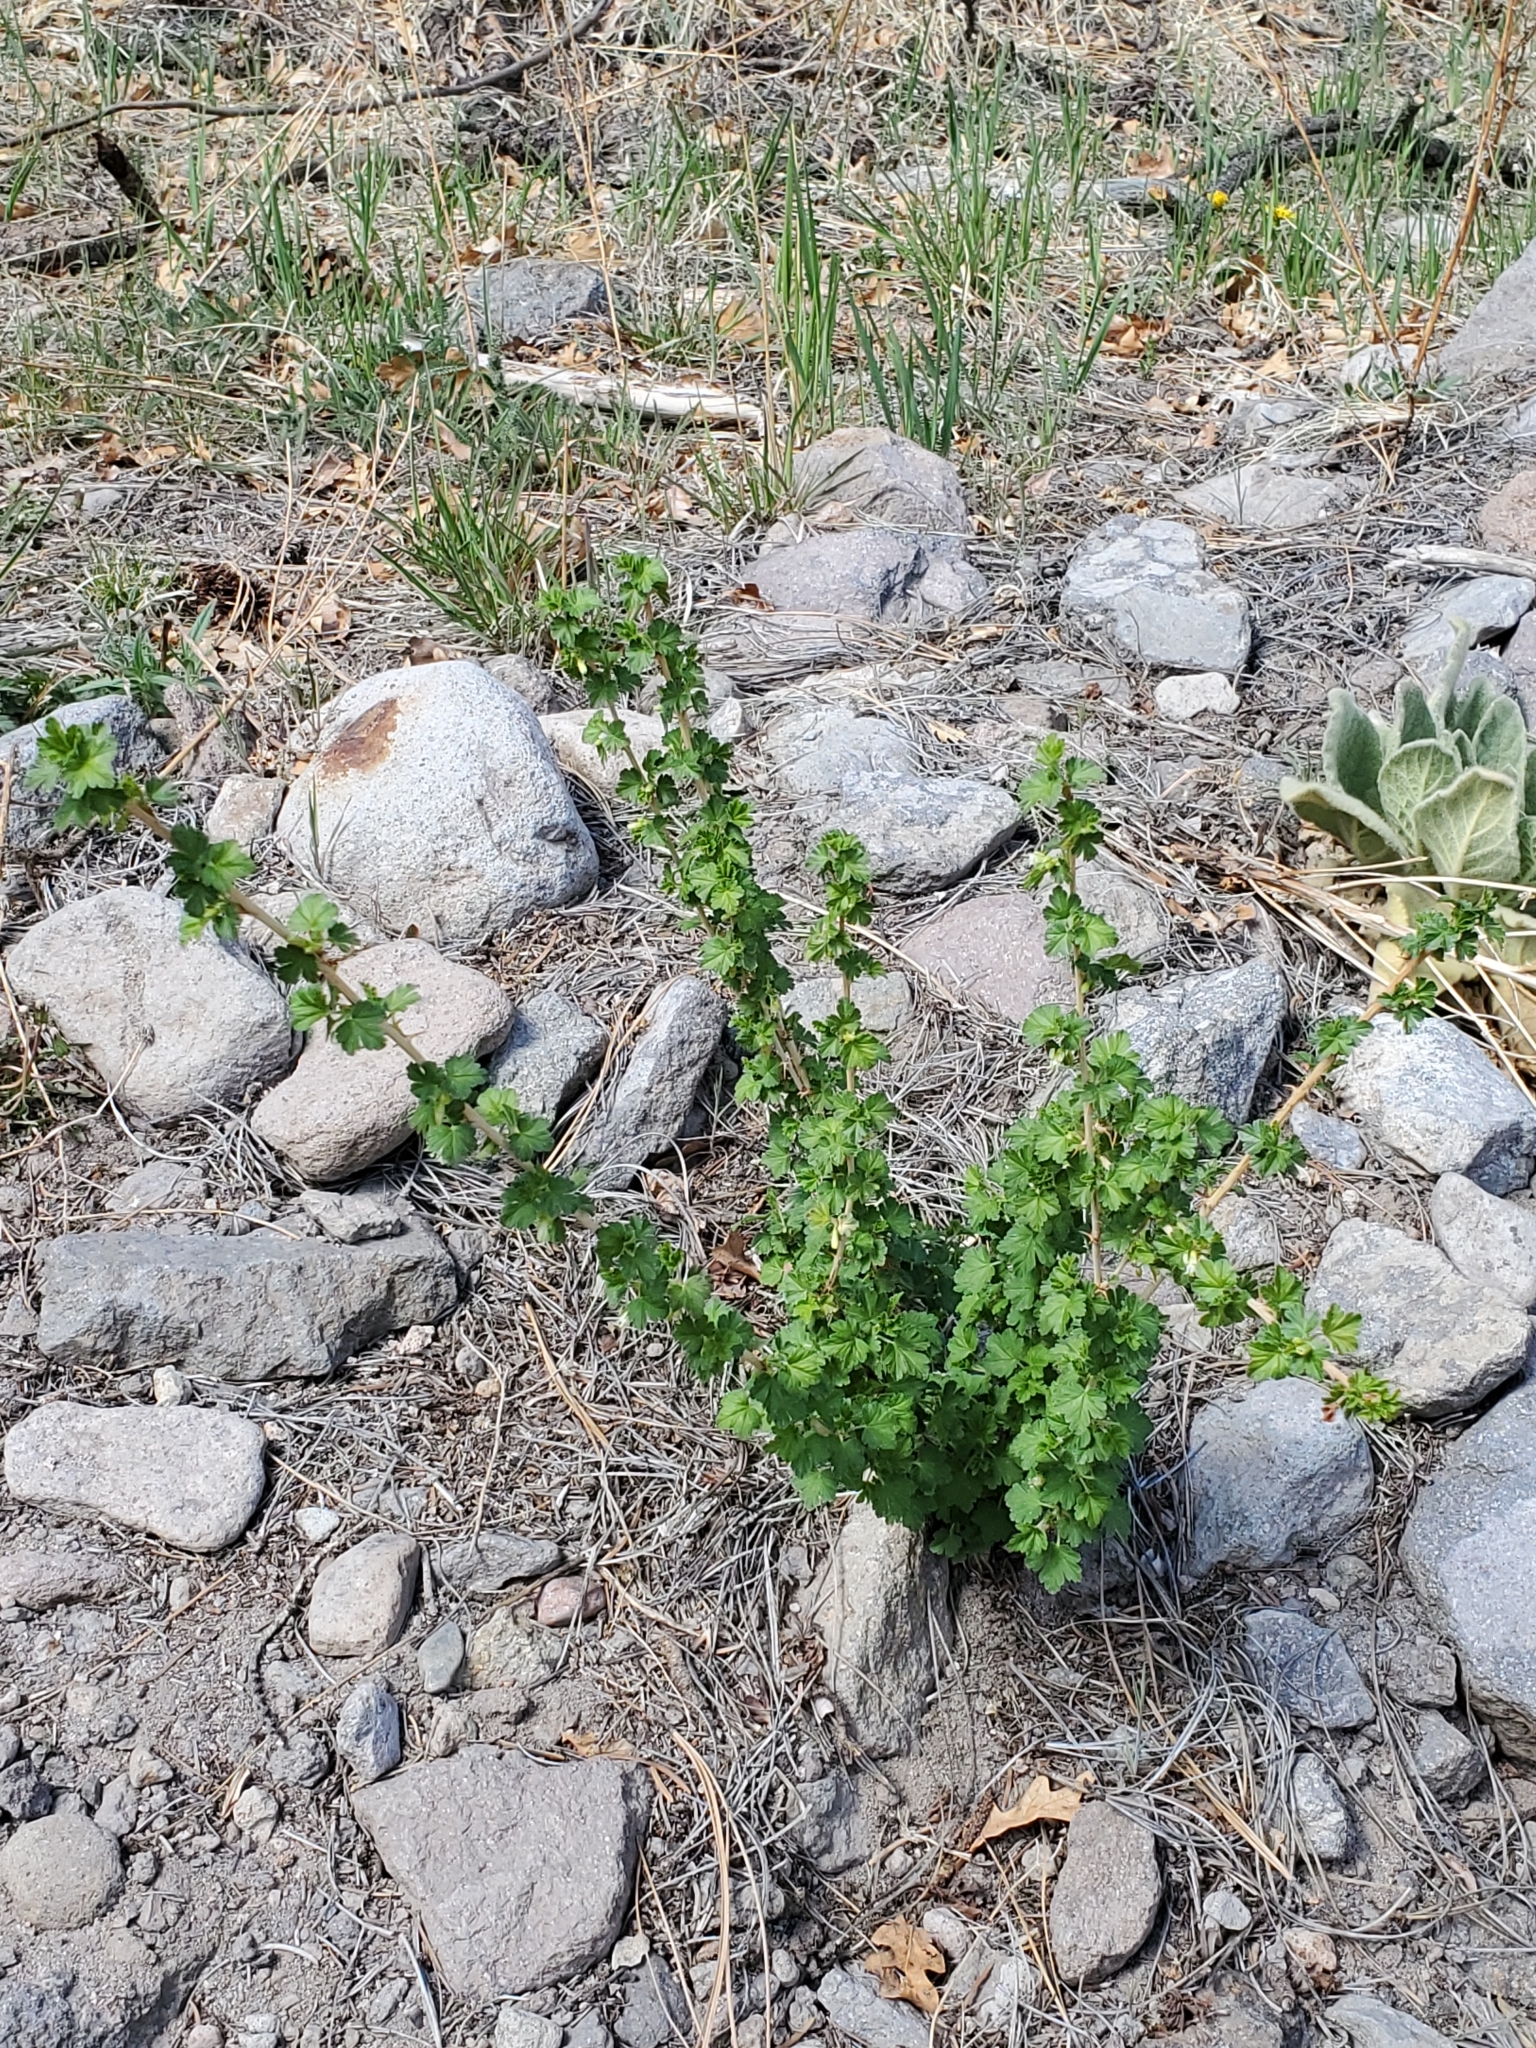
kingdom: Plantae
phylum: Tracheophyta
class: Magnoliopsida
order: Saxifragales
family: Grossulariaceae
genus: Ribes
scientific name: Ribes inerme
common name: White-stem gooseberry
